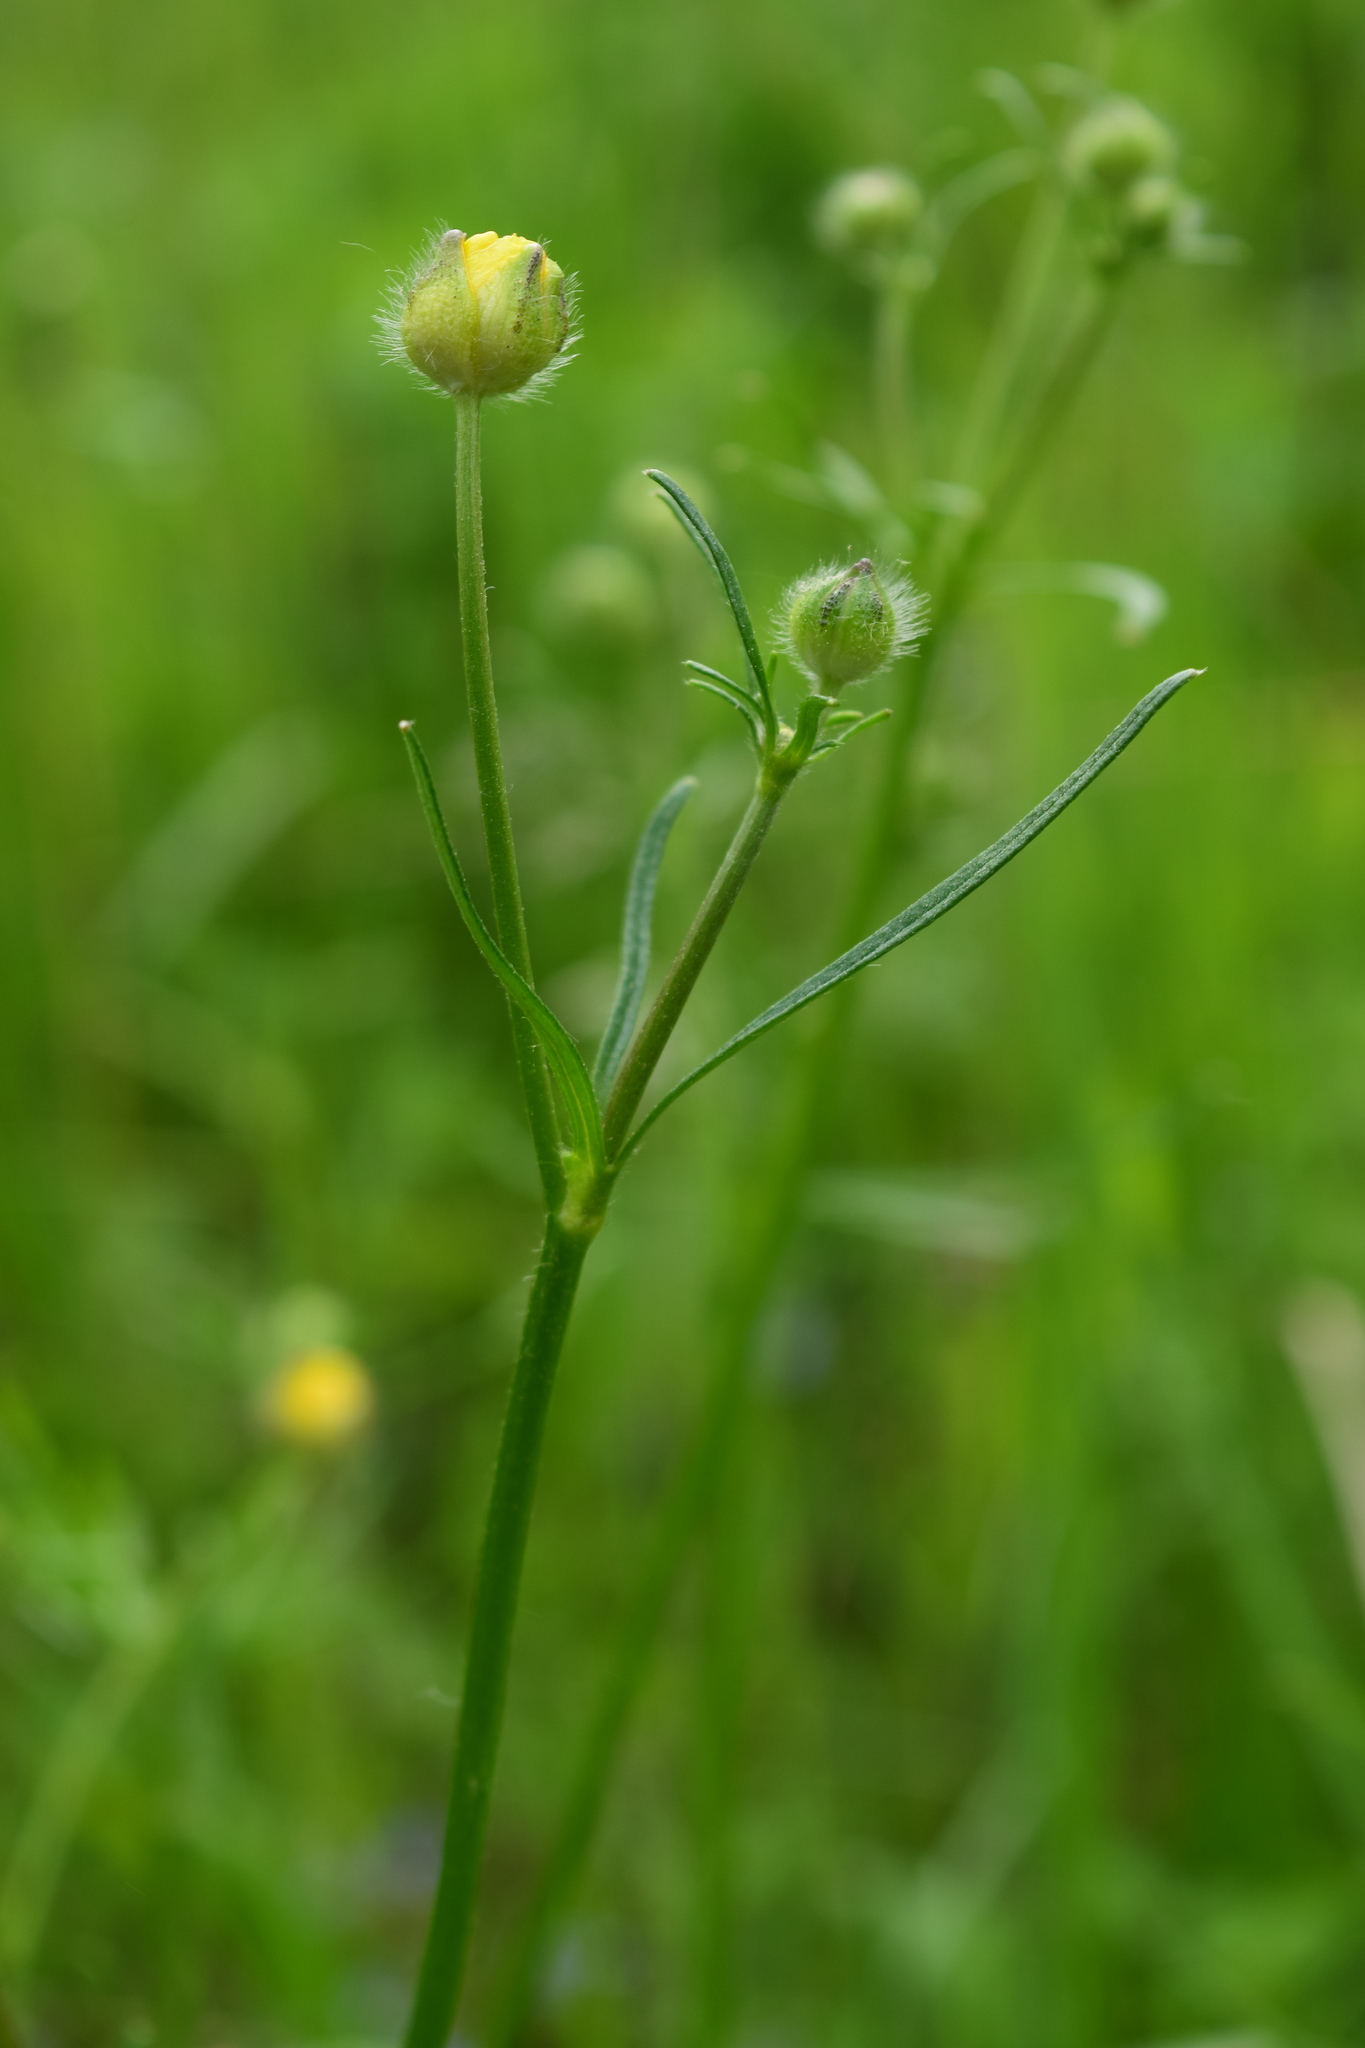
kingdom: Plantae
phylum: Tracheophyta
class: Magnoliopsida
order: Ranunculales
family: Ranunculaceae
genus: Ranunculus
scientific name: Ranunculus polyanthemos
